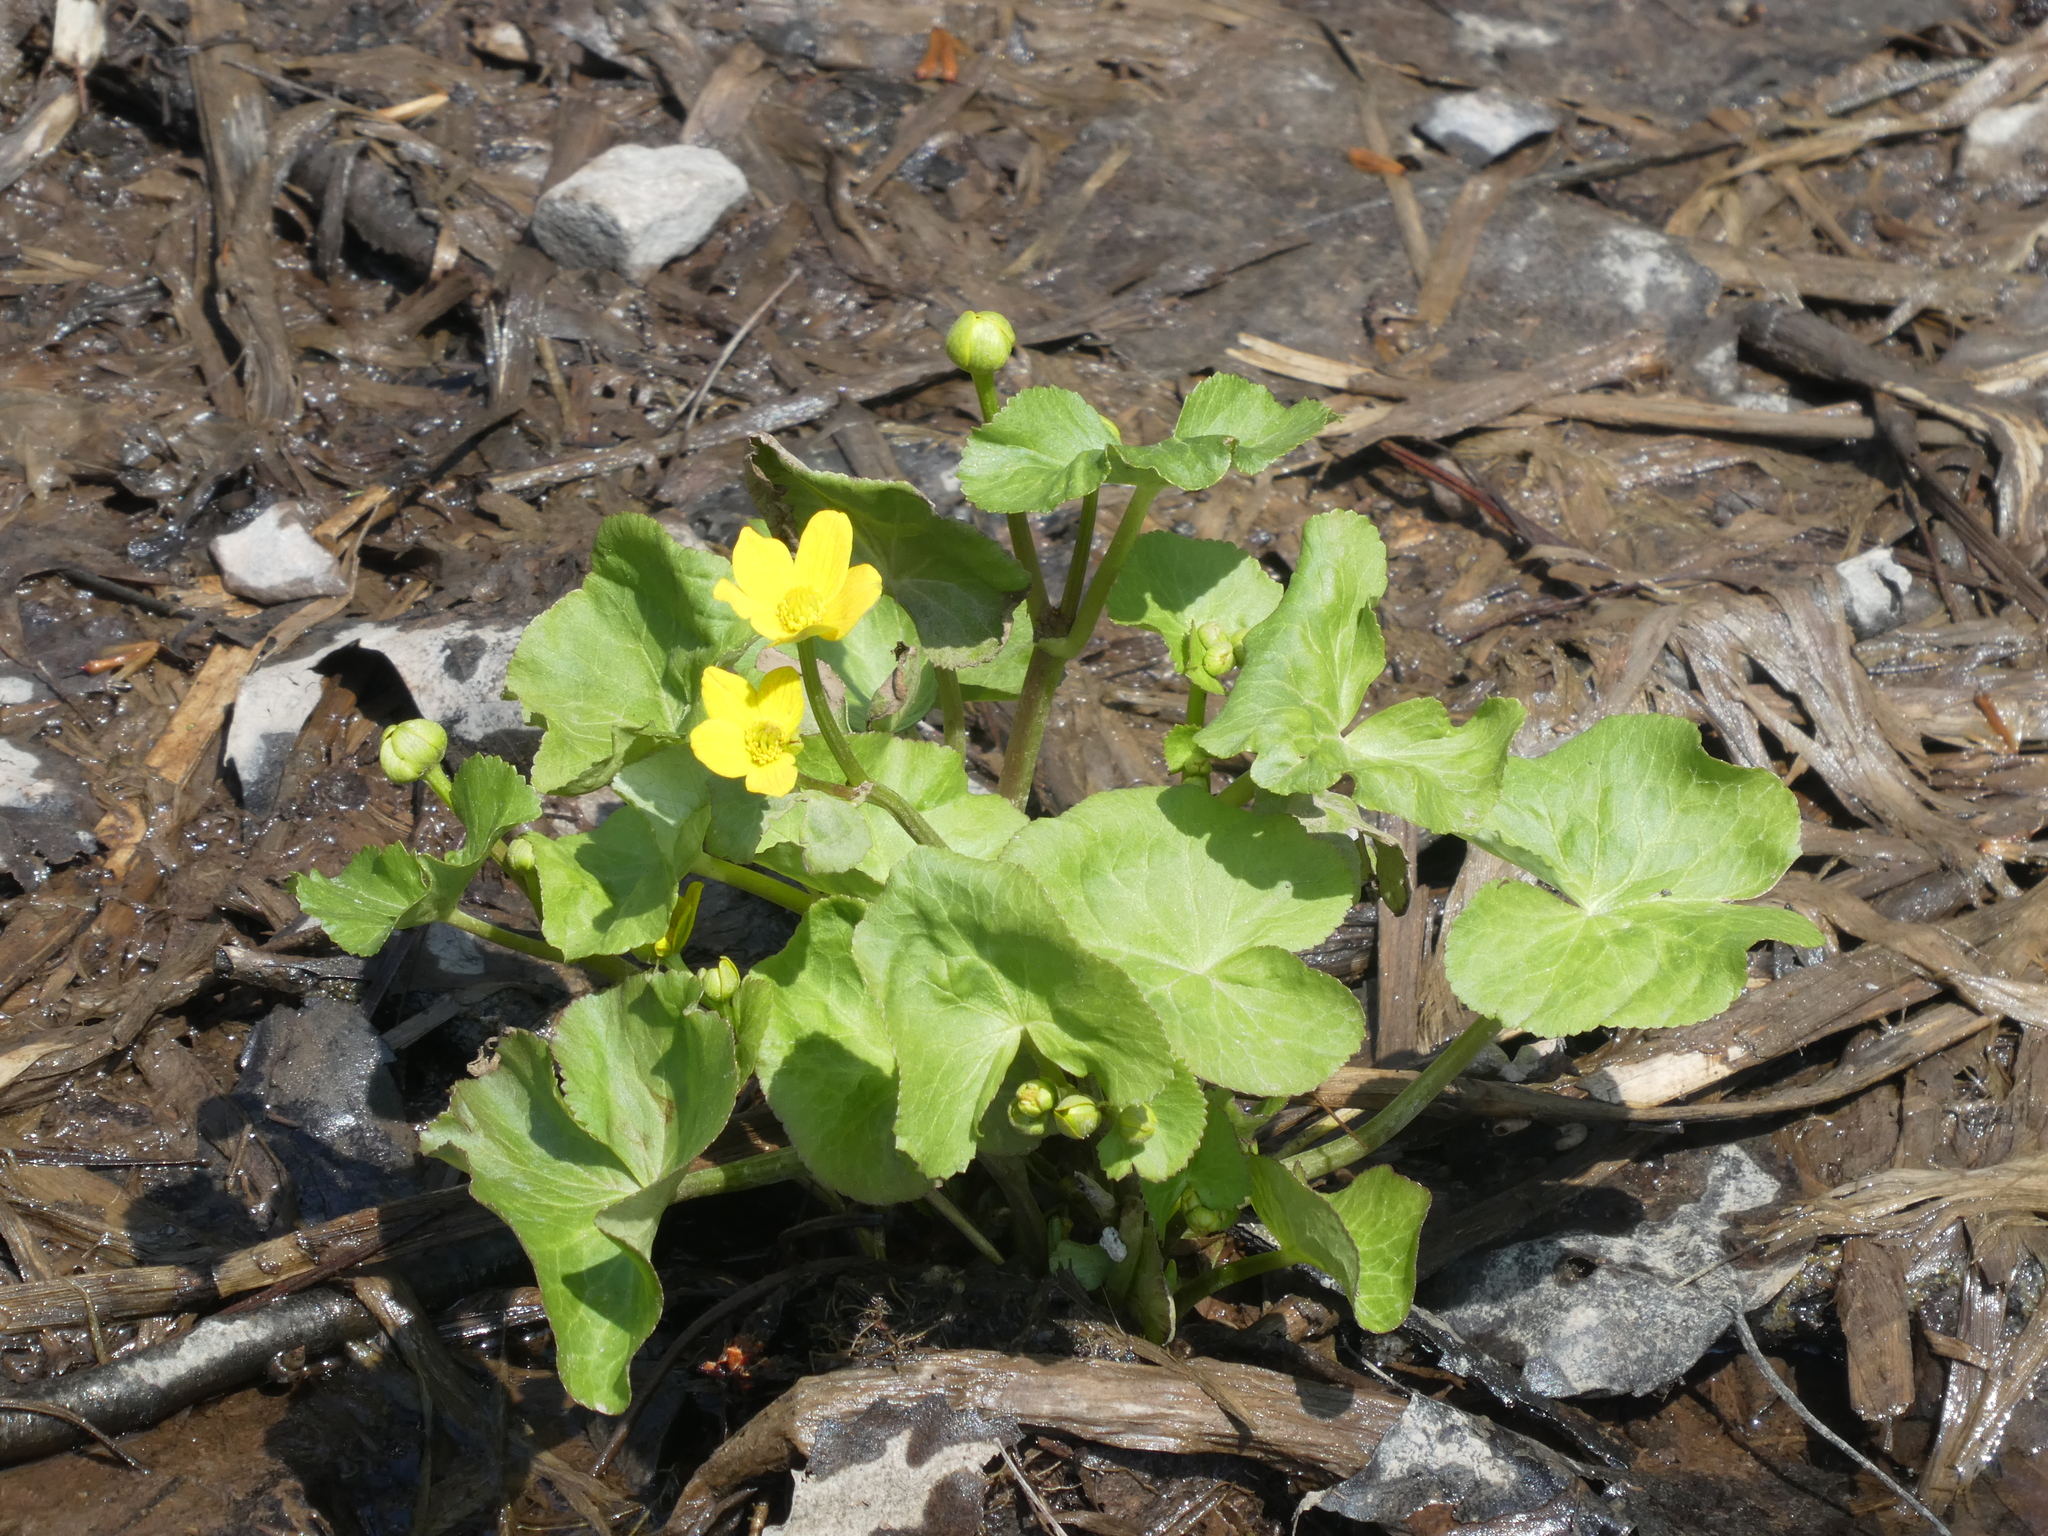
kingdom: Plantae
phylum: Tracheophyta
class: Magnoliopsida
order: Ranunculales
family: Ranunculaceae
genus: Caltha
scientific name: Caltha palustris
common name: Marsh marigold
